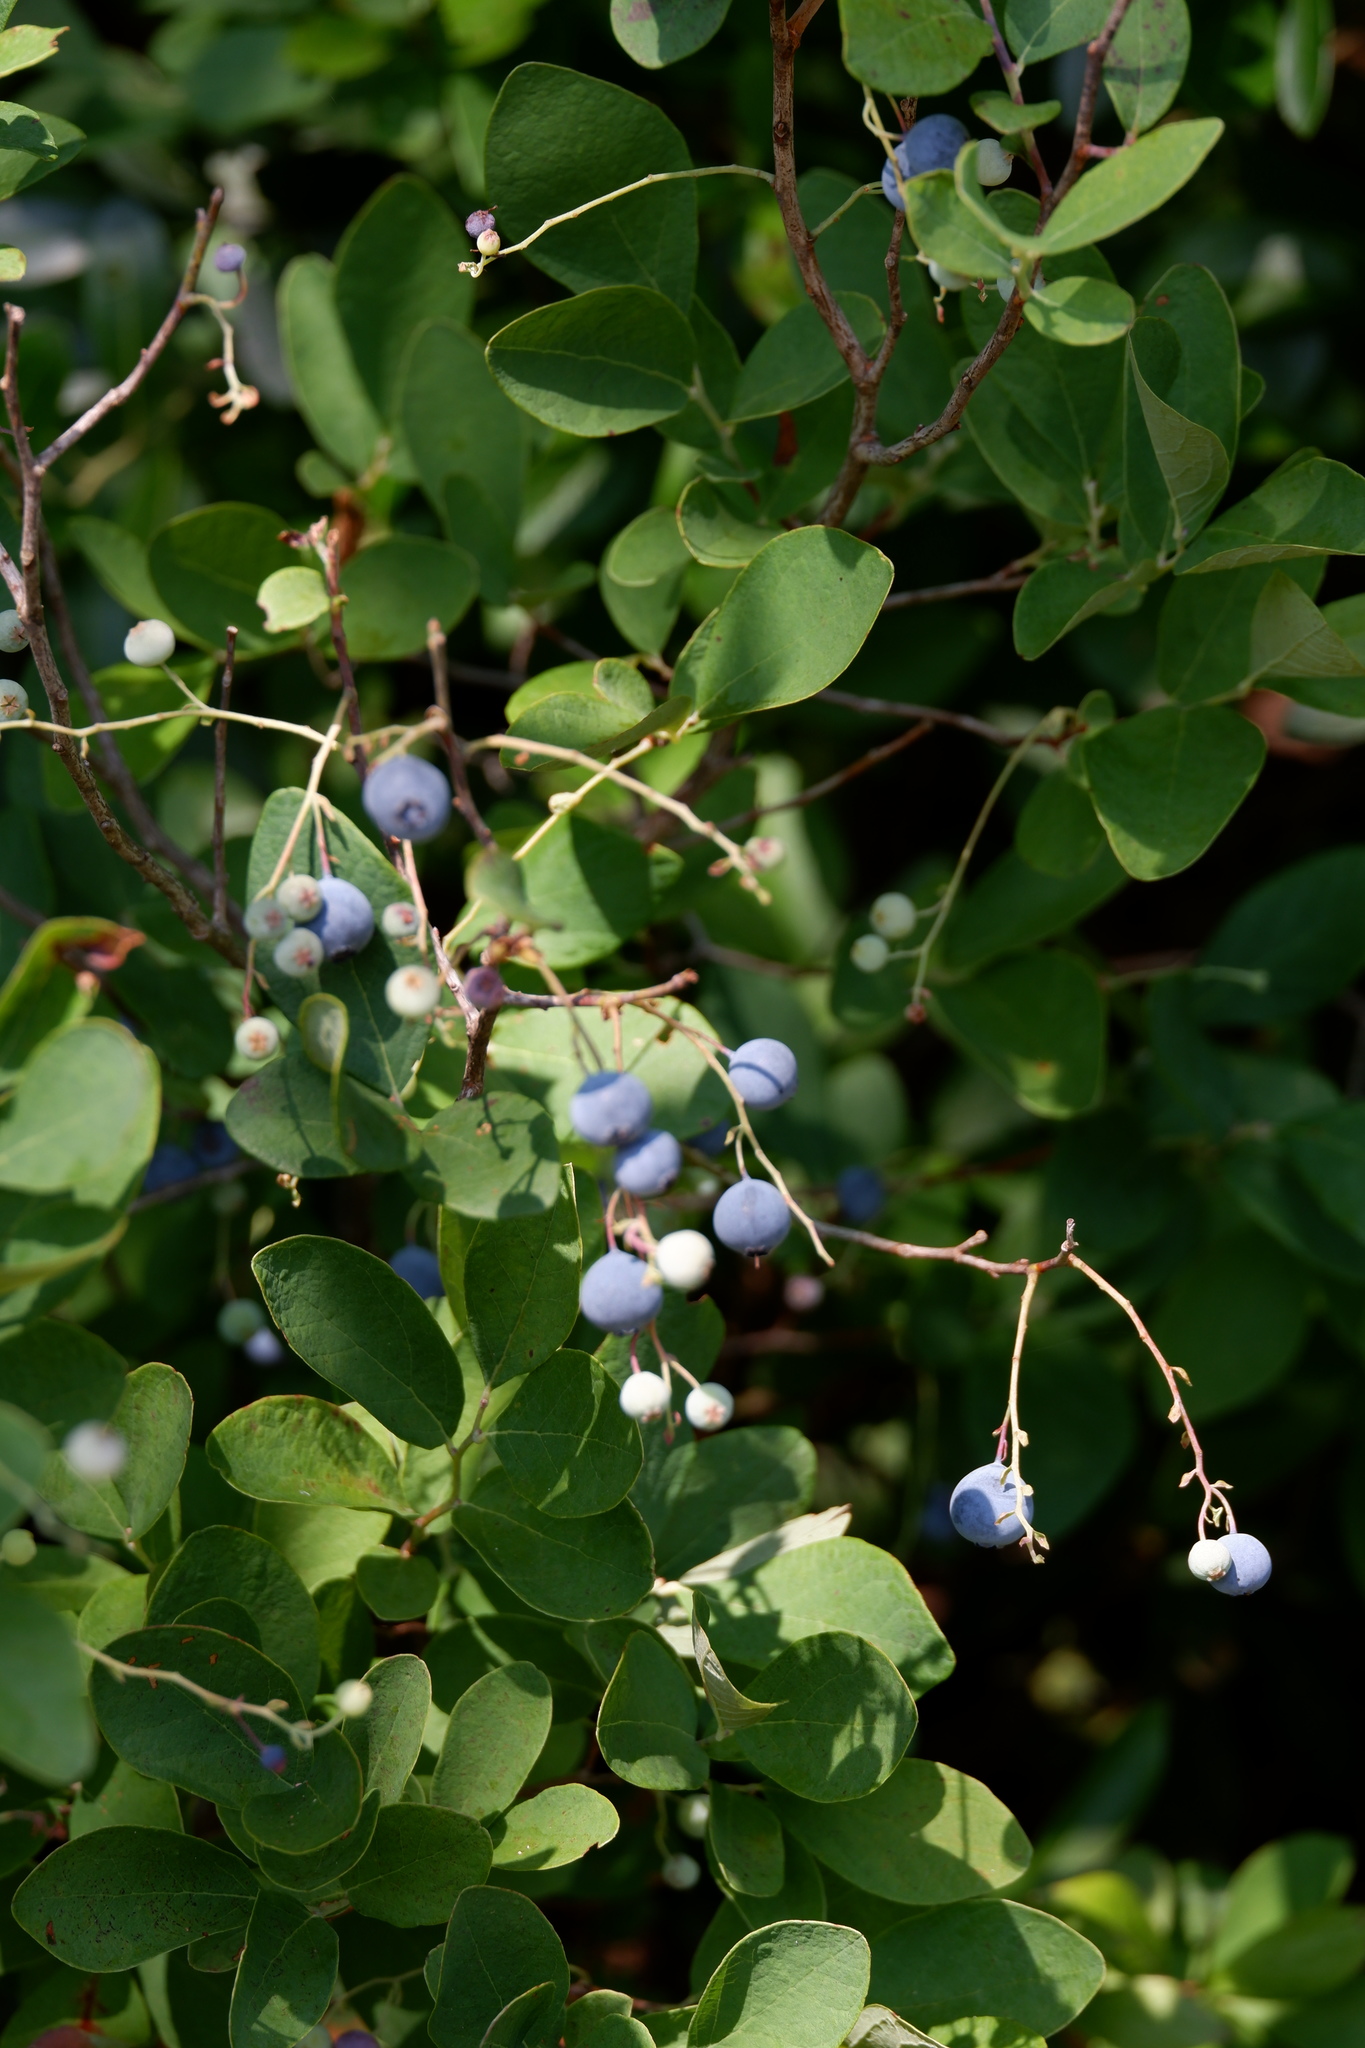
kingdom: Plantae
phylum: Tracheophyta
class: Magnoliopsida
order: Ericales
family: Ericaceae
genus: Vaccinium
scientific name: Vaccinium stamineum
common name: Deerberry
